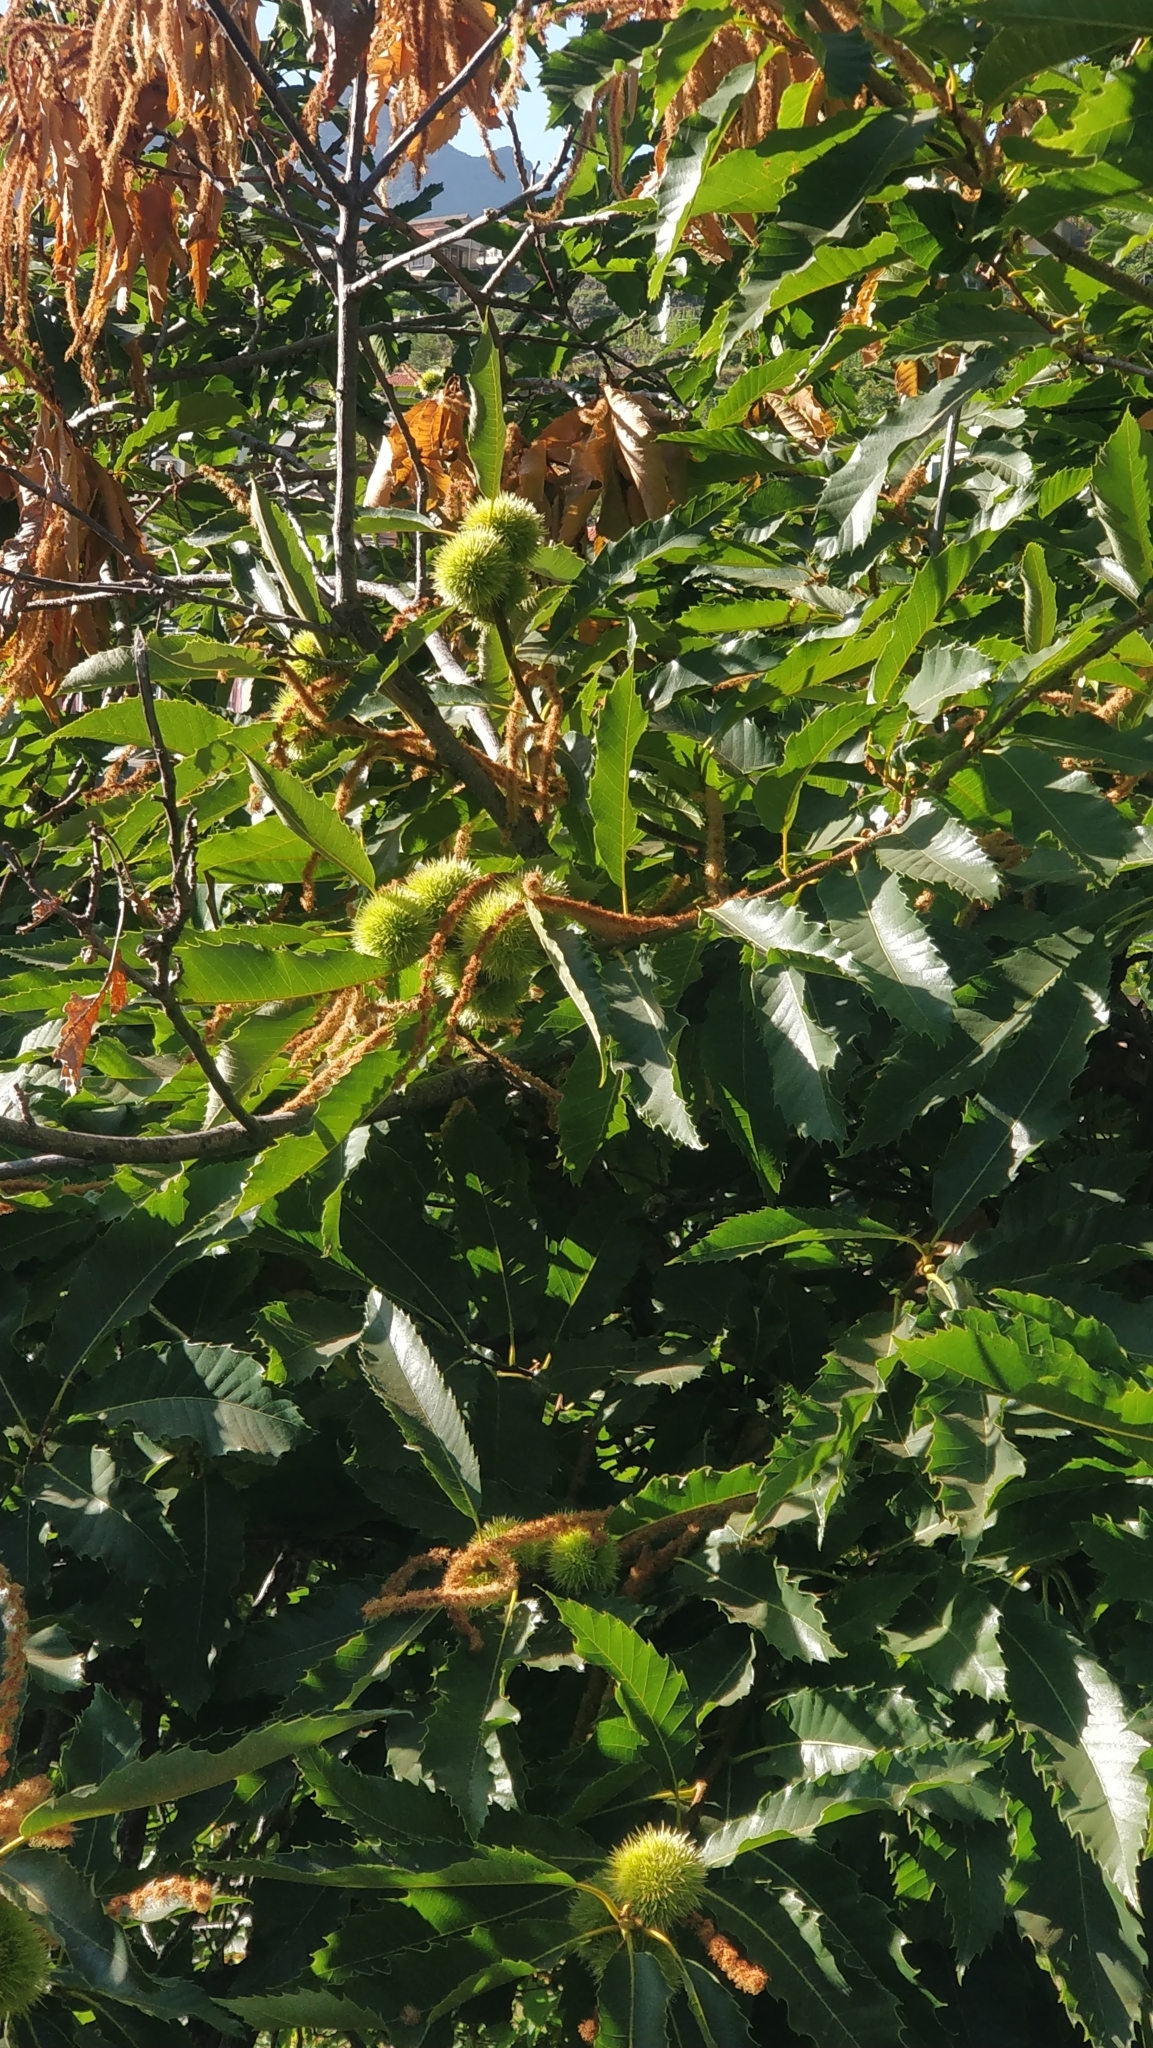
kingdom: Plantae
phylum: Tracheophyta
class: Magnoliopsida
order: Fagales
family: Fagaceae
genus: Castanea
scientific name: Castanea sativa
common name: Sweet chestnut
